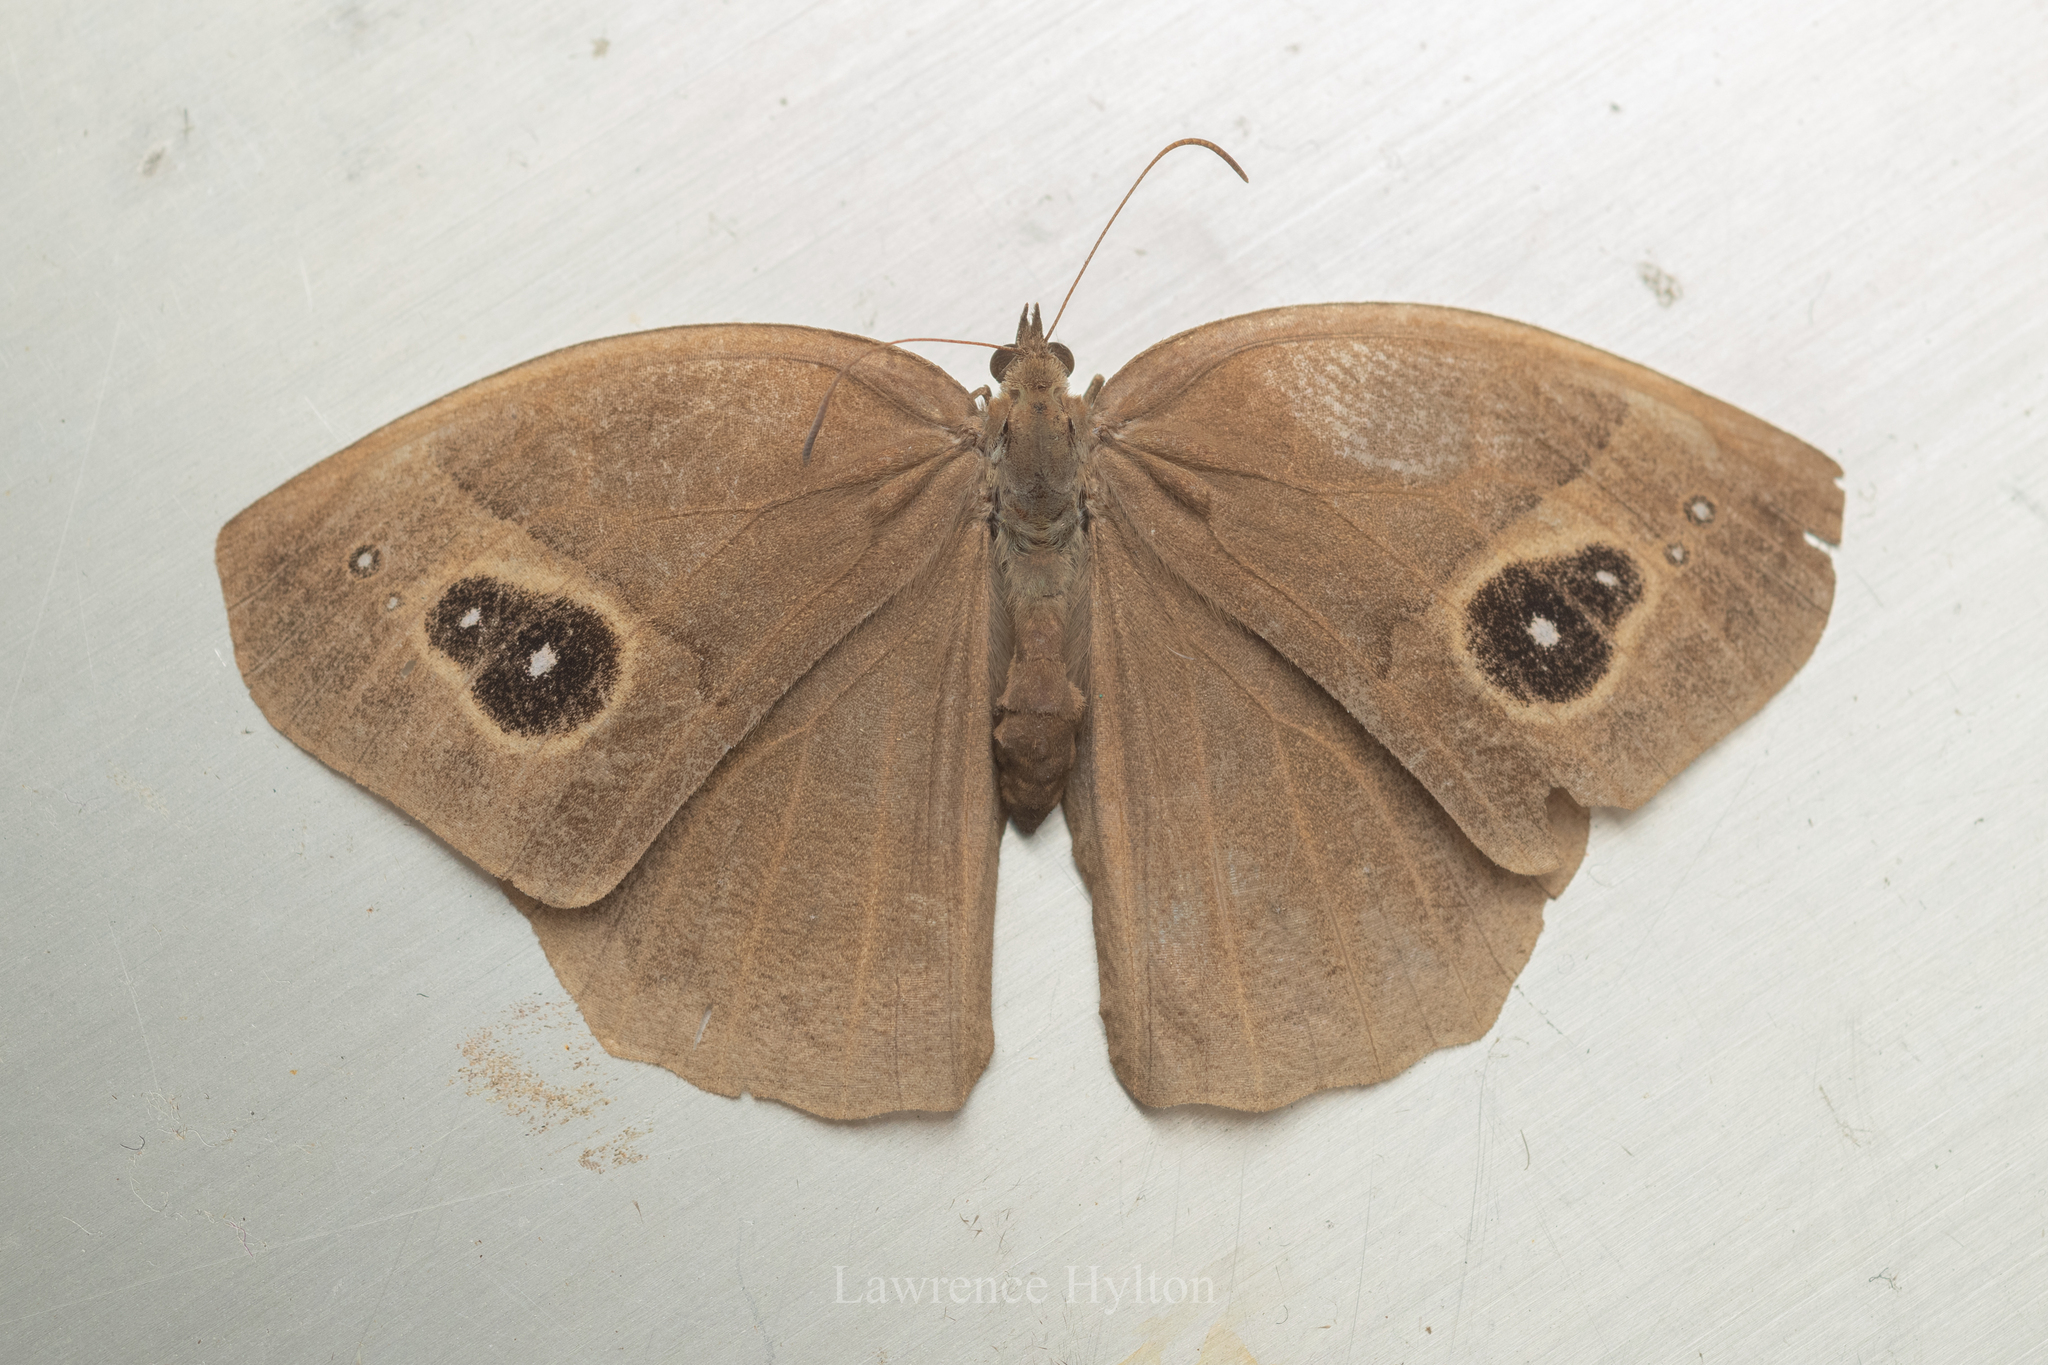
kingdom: Animalia
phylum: Arthropoda
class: Insecta
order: Lepidoptera
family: Nymphalidae
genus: Mycalesis
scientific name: Mycalesis horsfieldii
